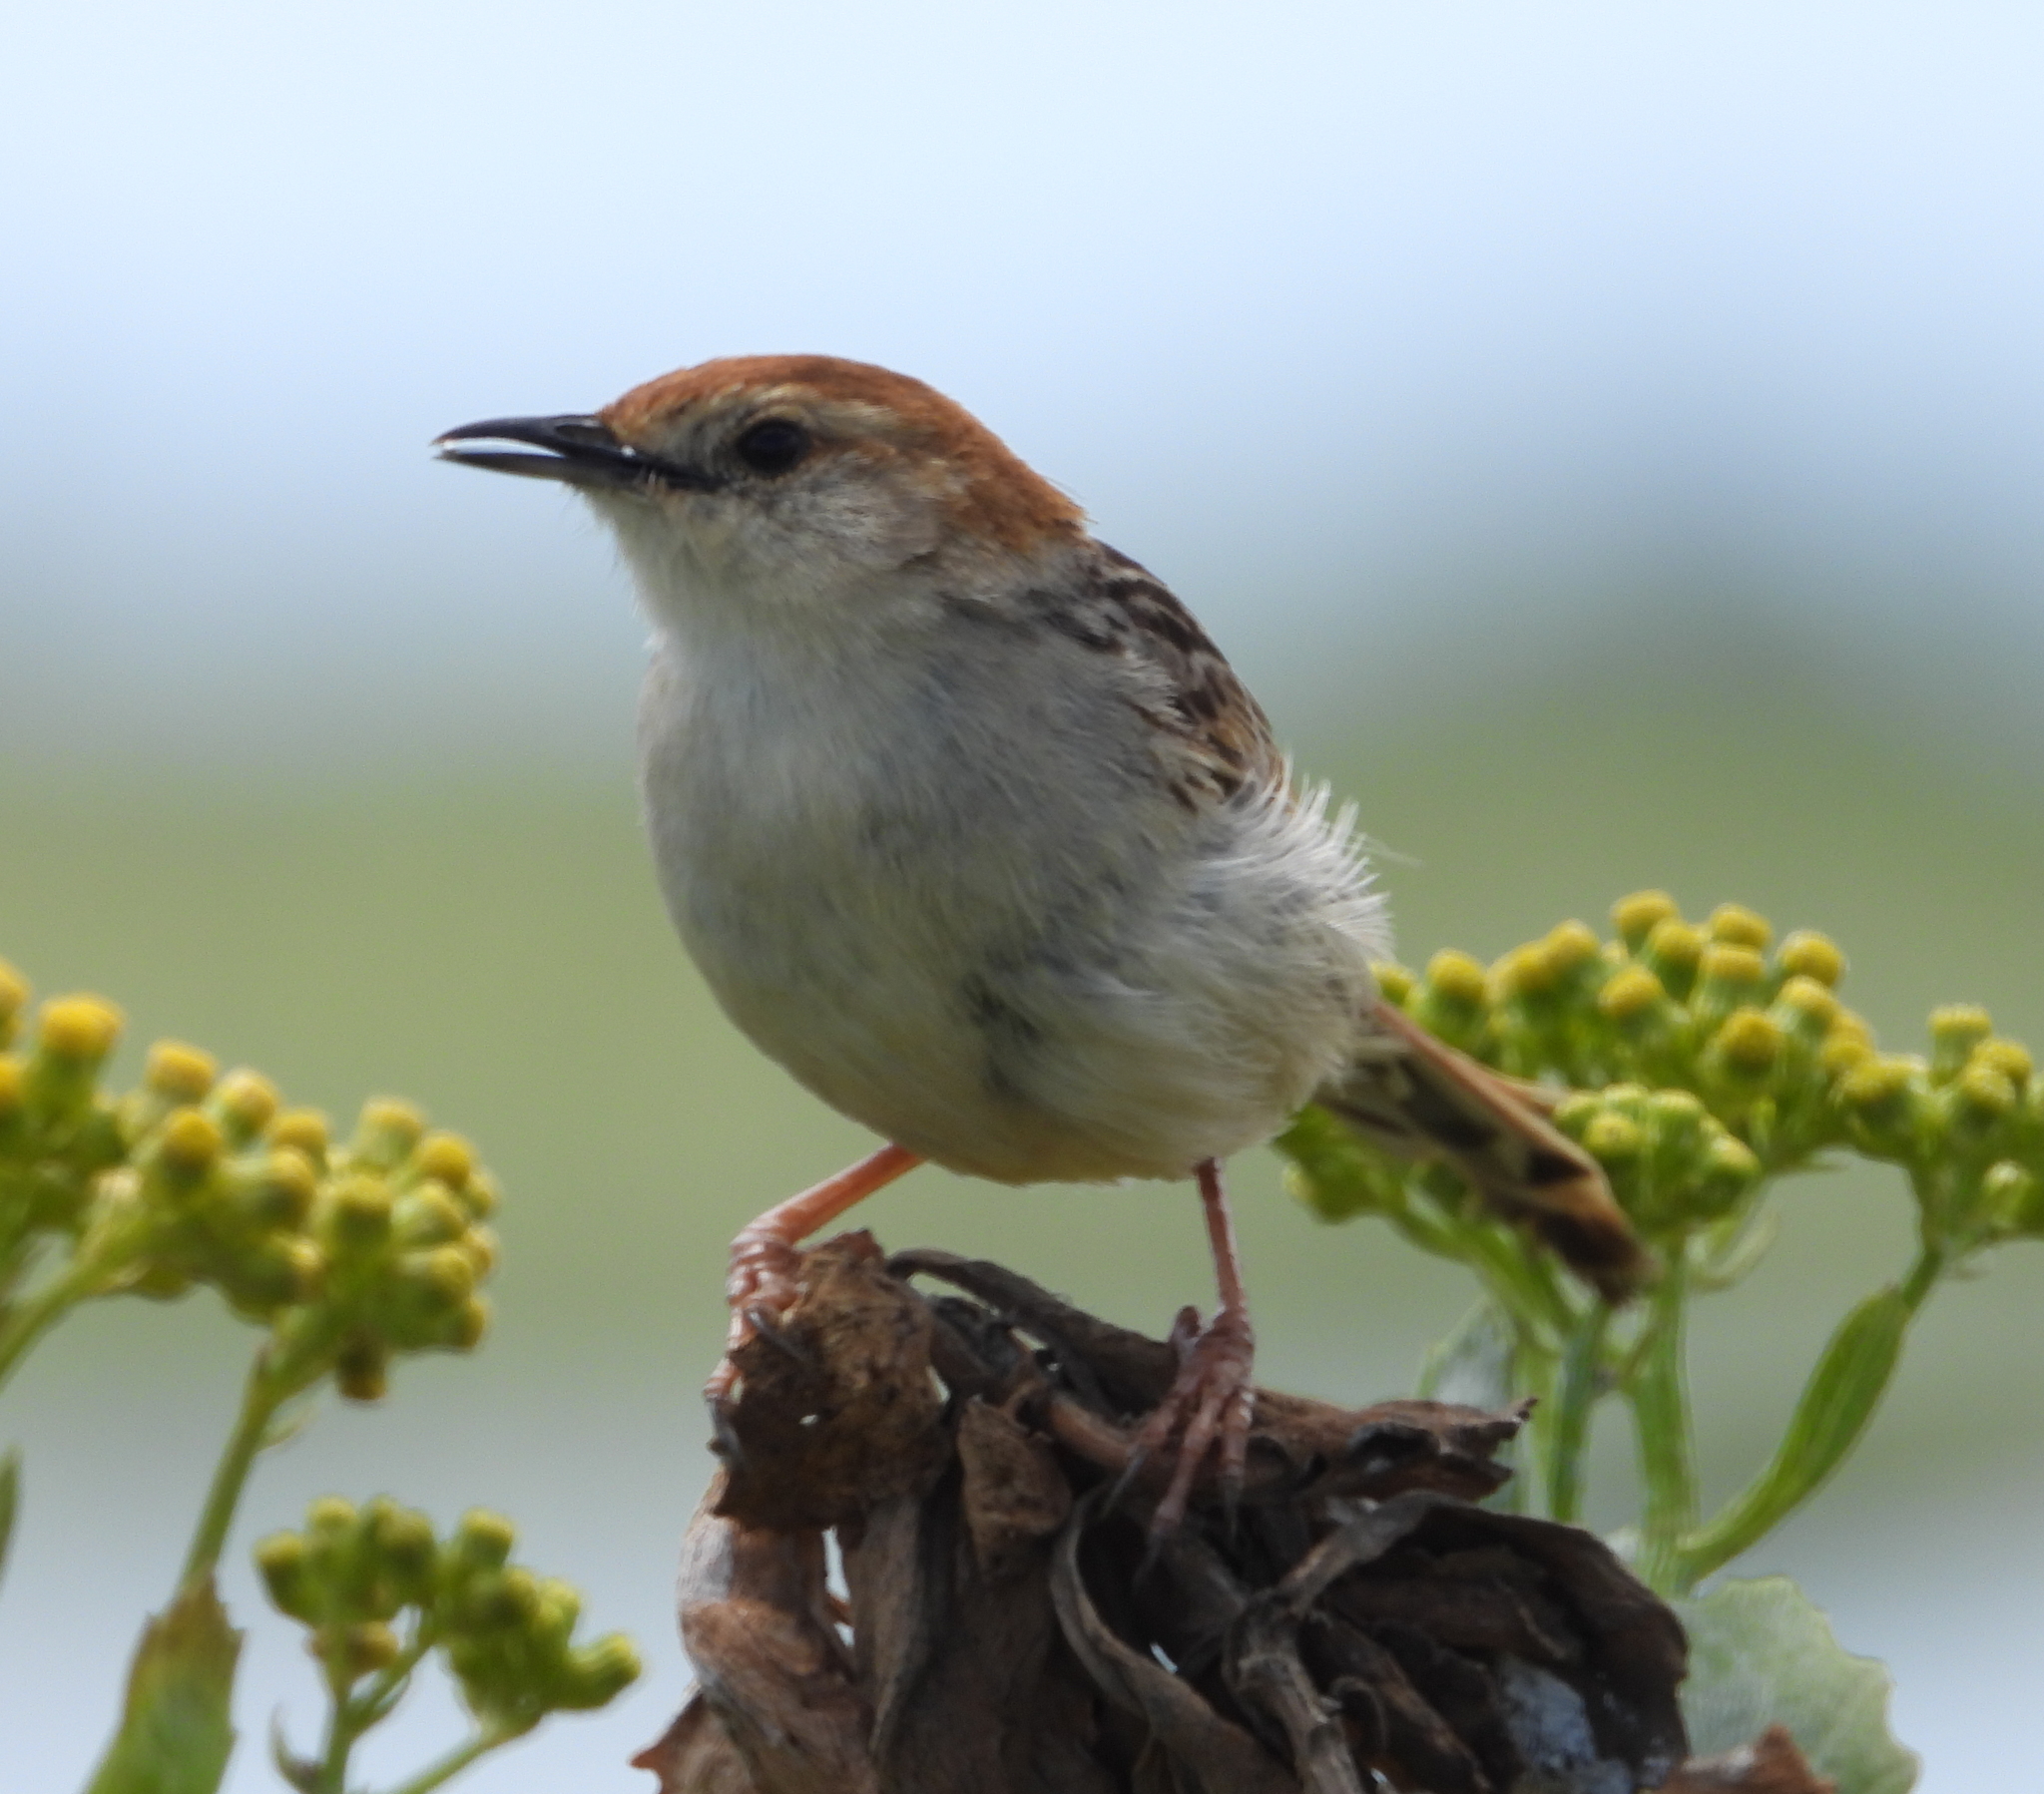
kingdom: Animalia
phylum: Chordata
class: Aves
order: Passeriformes
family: Cisticolidae
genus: Cisticola
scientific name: Cisticola tinniens
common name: Levaillant's cisticola
